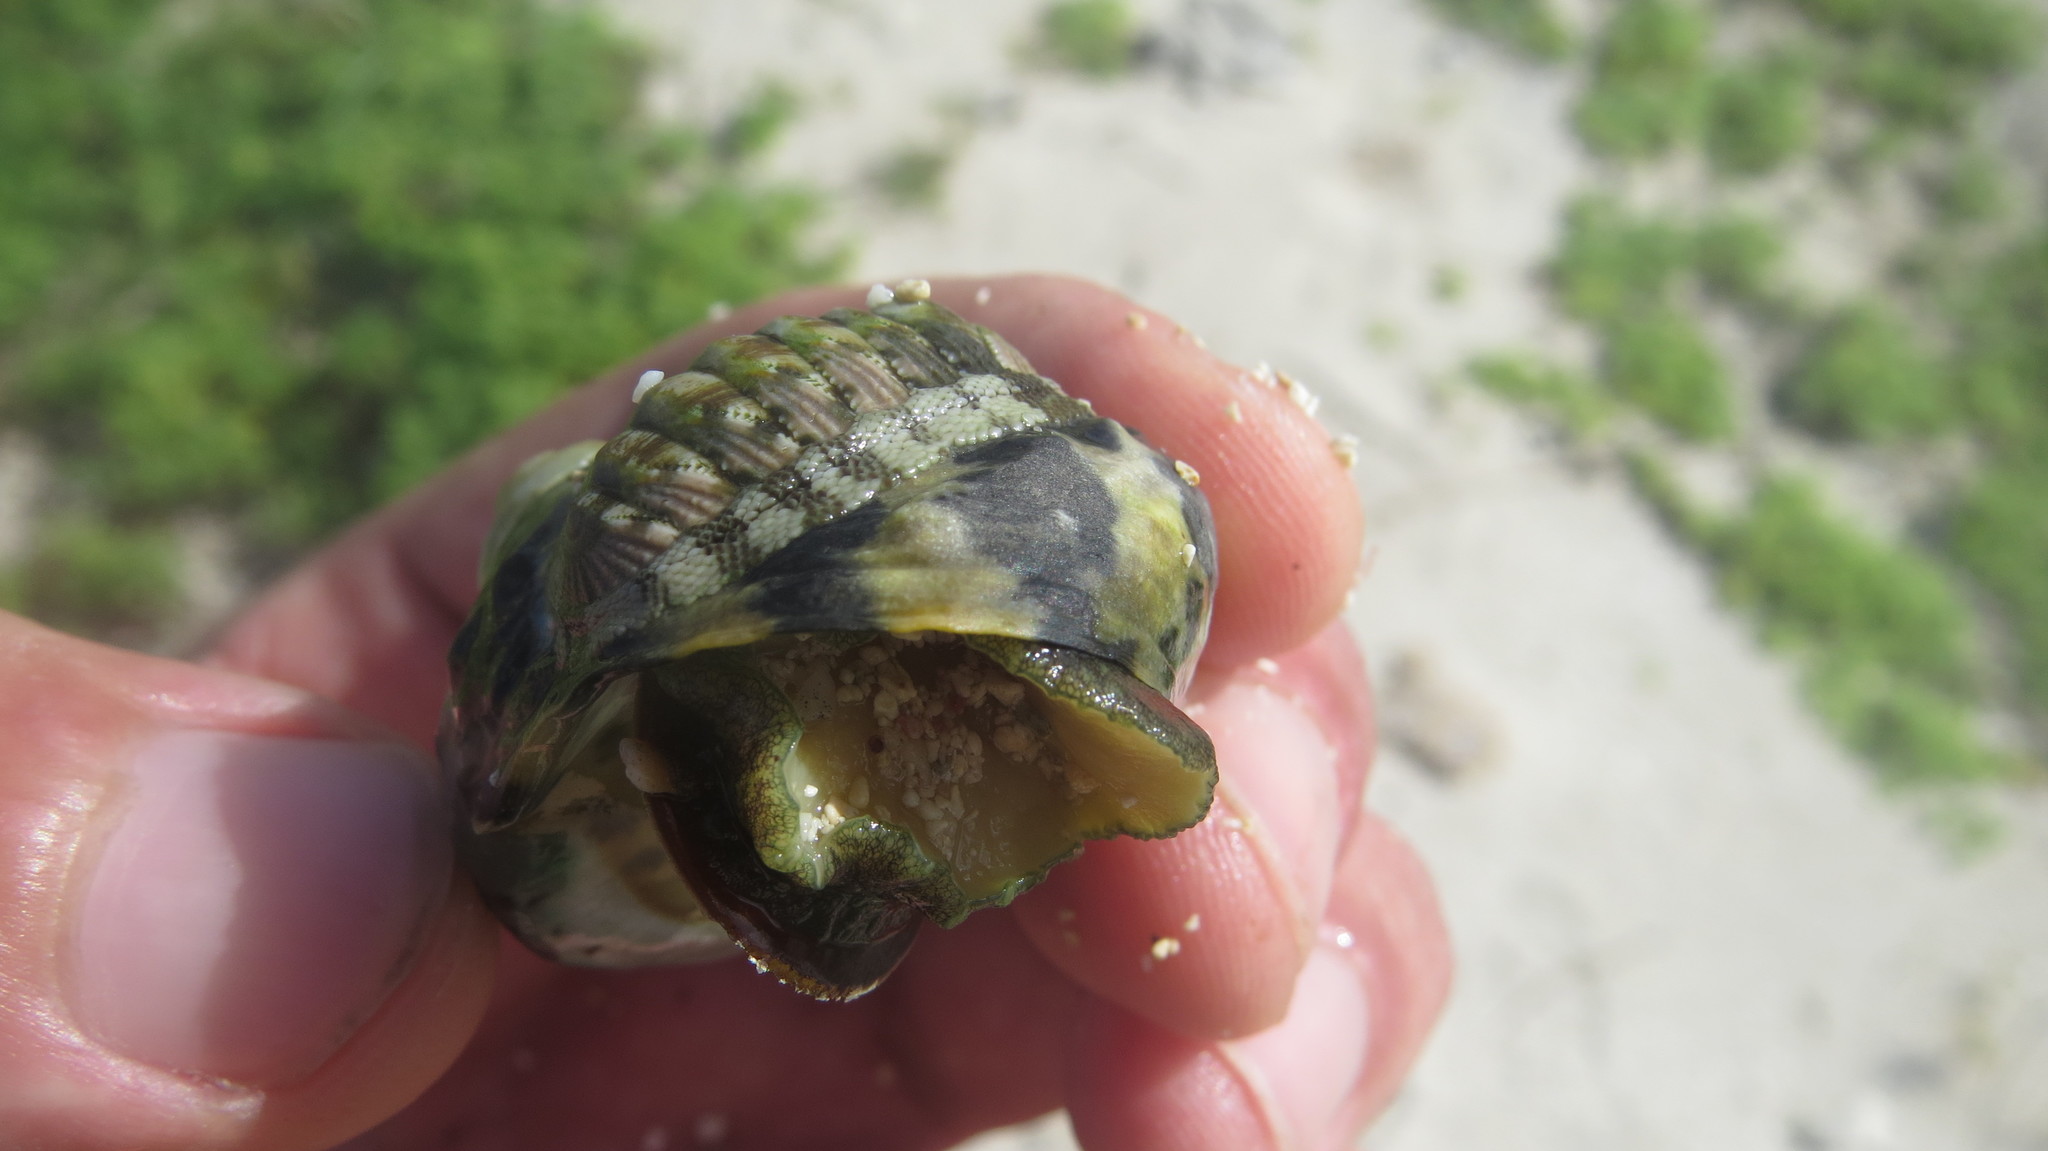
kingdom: Animalia
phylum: Mollusca
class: Polyplacophora
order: Chitonida
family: Chitonidae
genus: Chiton
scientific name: Chiton viridis
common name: Long back
